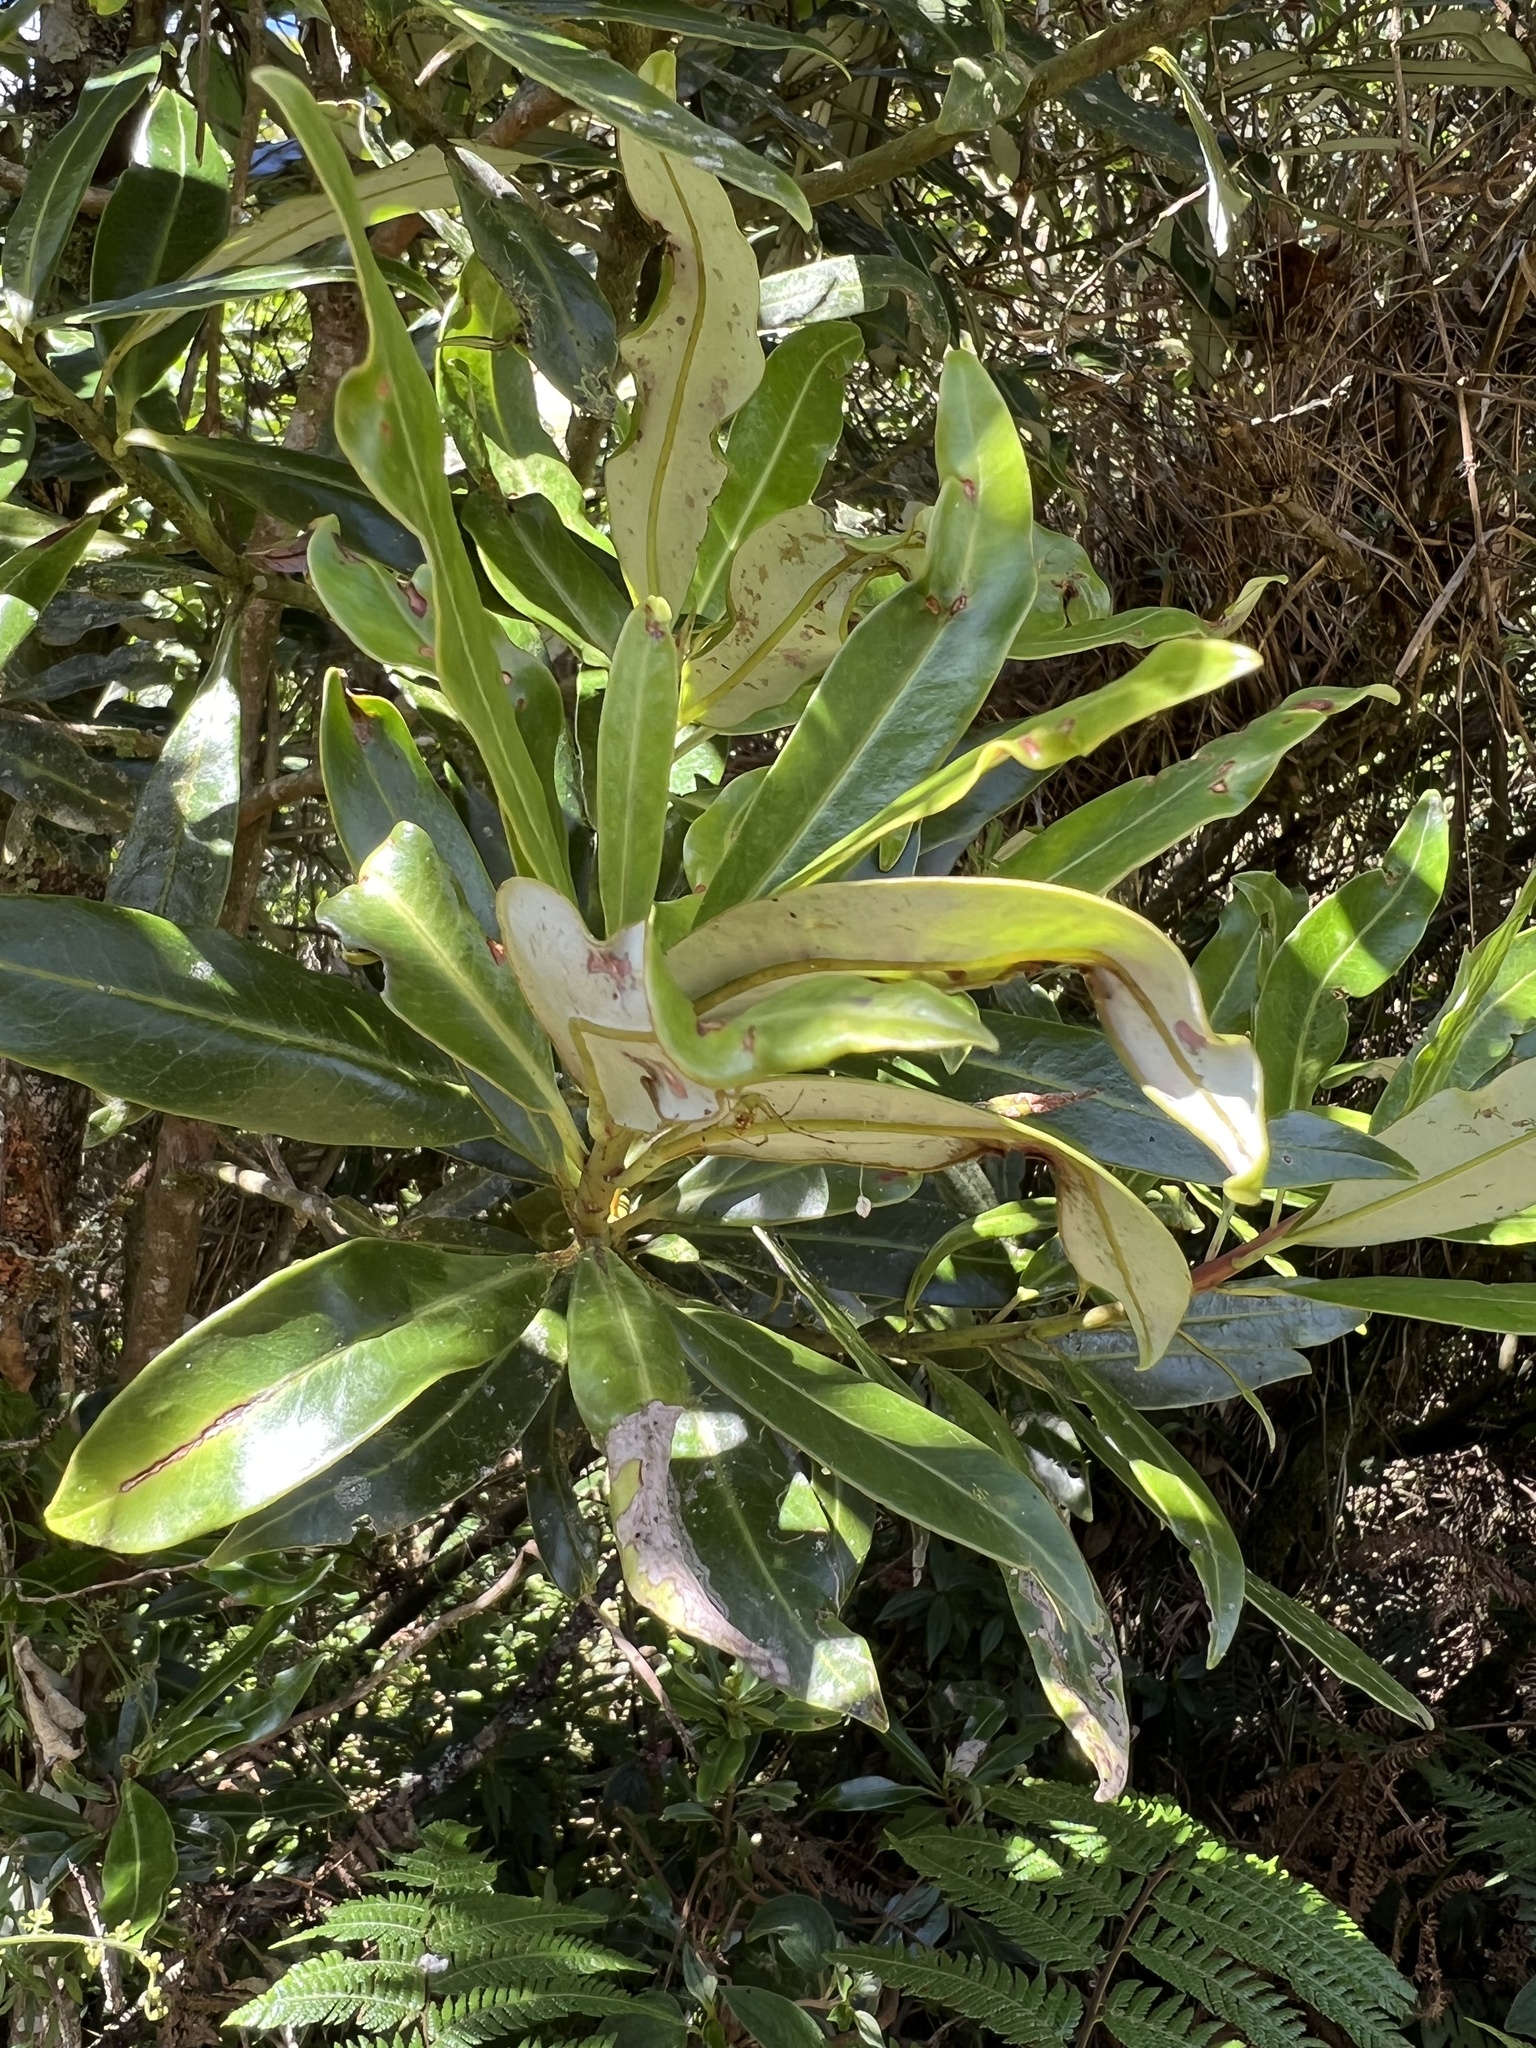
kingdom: Plantae
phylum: Tracheophyta
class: Magnoliopsida
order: Canellales
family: Winteraceae
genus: Drimys
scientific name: Drimys granadensis
